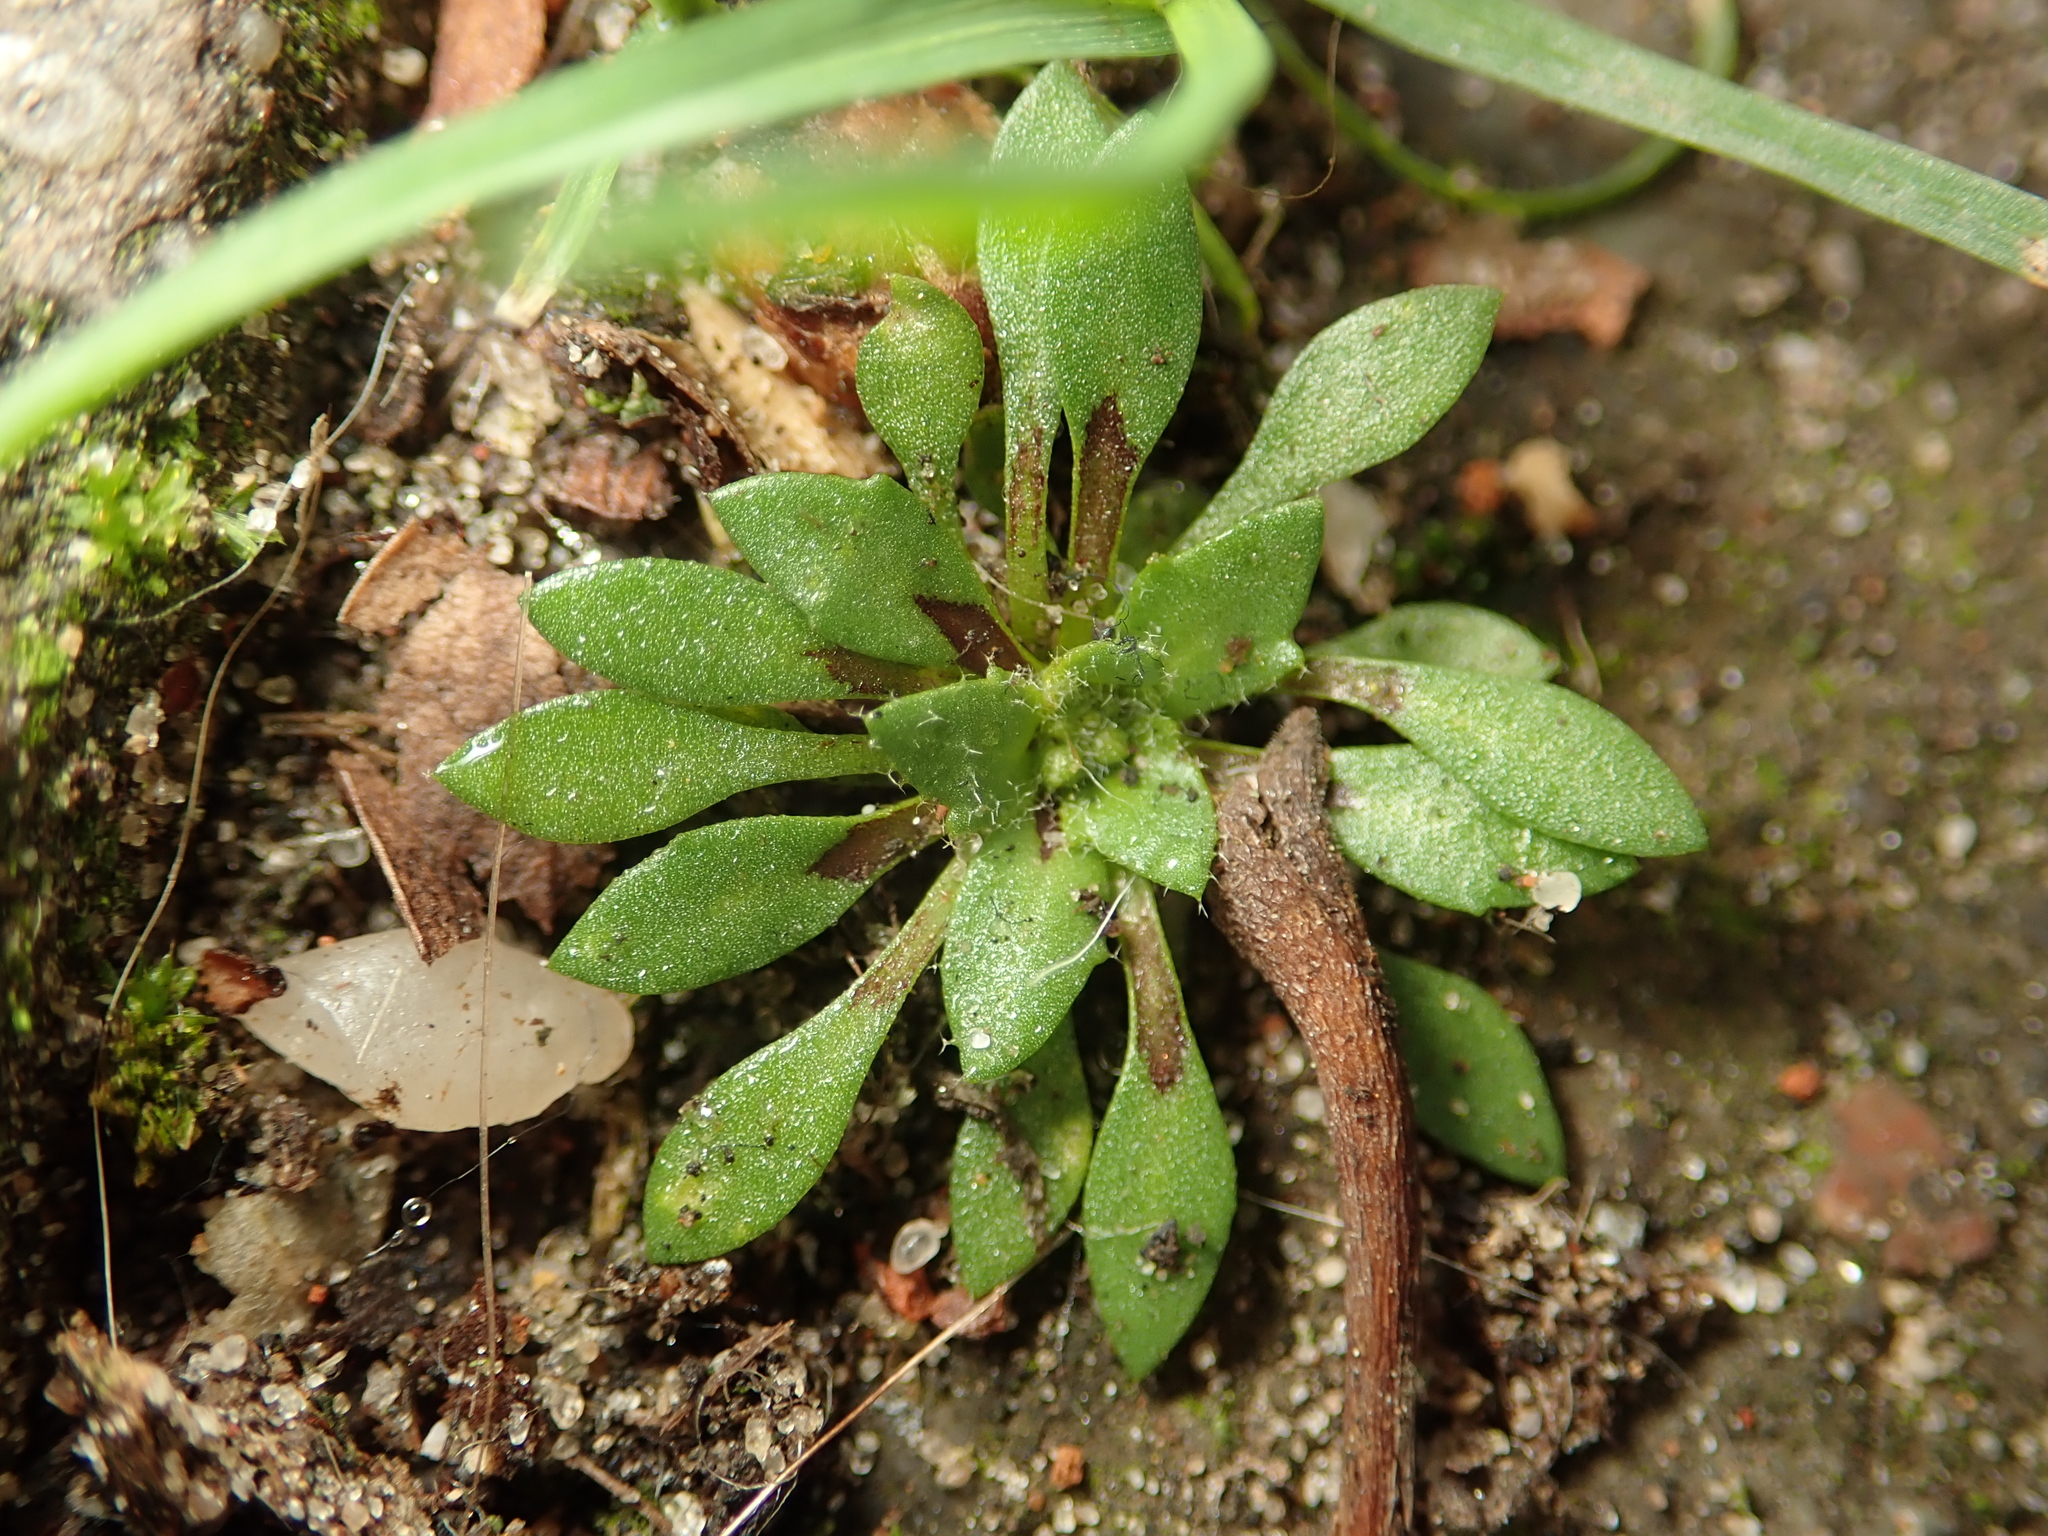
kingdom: Plantae
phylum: Tracheophyta
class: Magnoliopsida
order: Brassicales
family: Brassicaceae
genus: Draba
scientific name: Draba verna
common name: Spring draba
